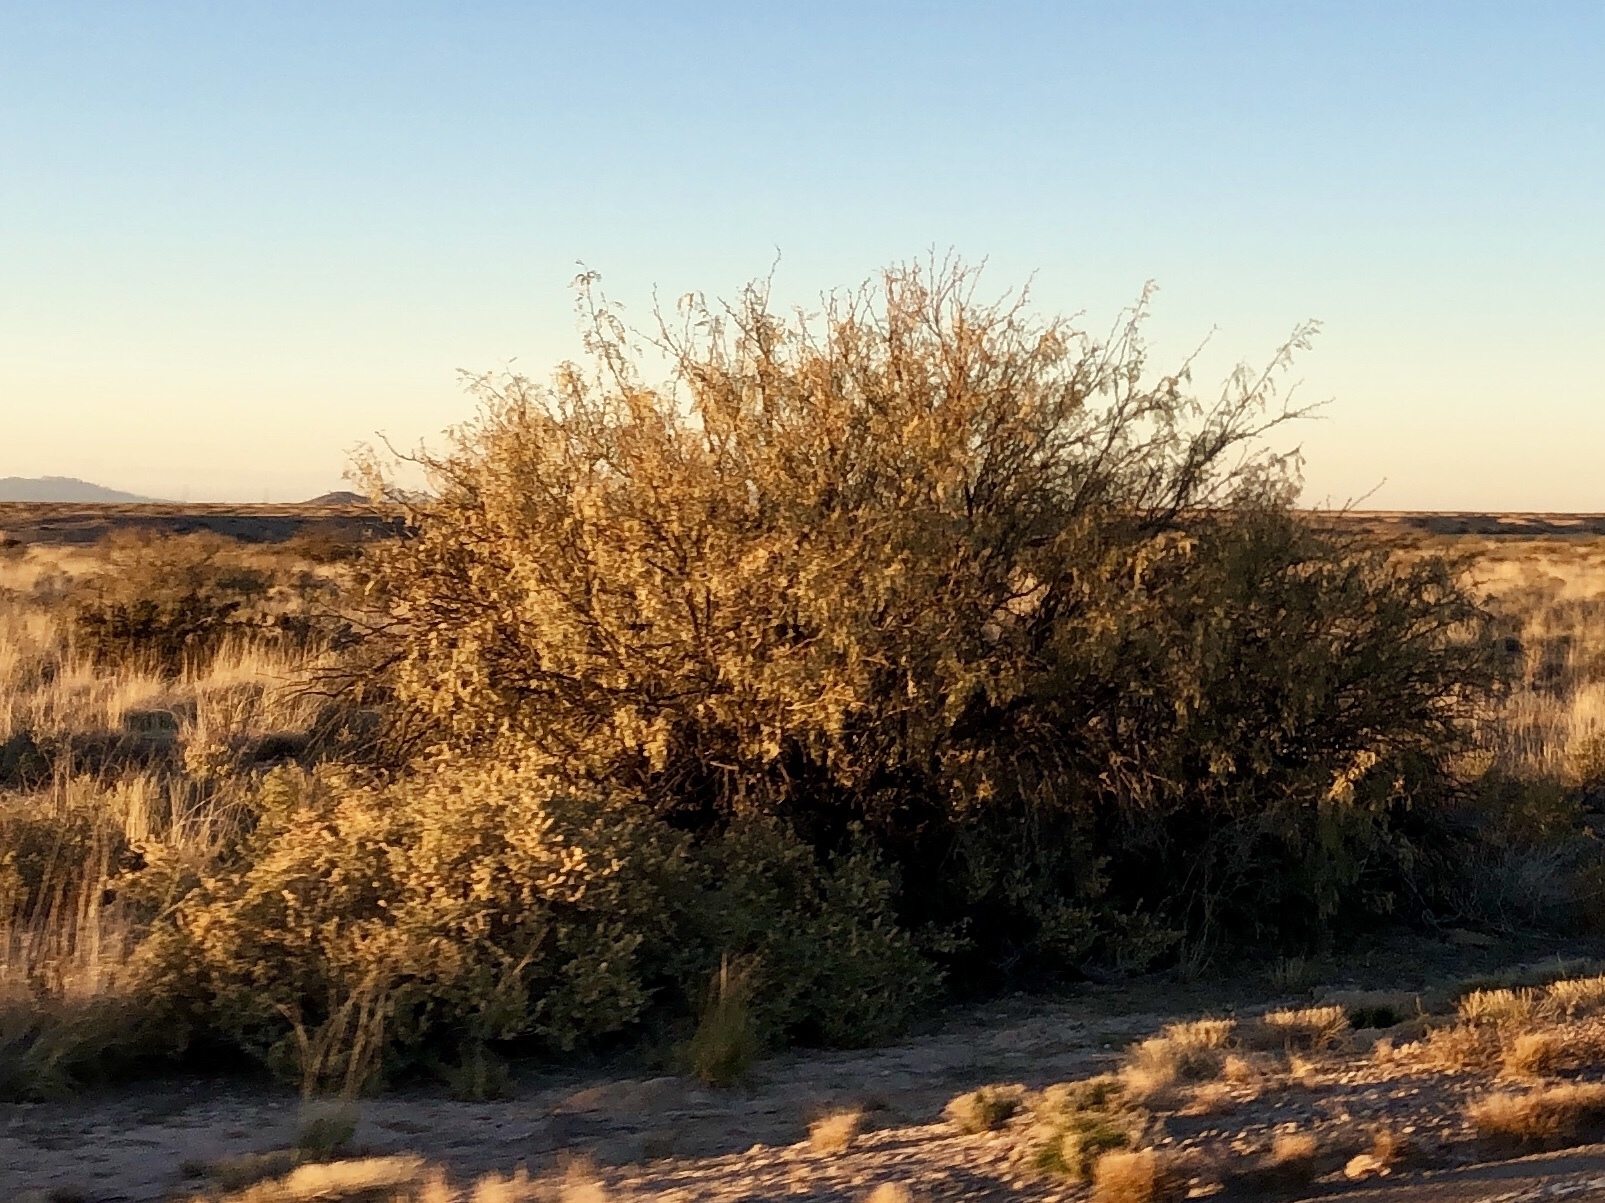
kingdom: Plantae
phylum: Tracheophyta
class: Magnoliopsida
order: Fabales
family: Fabaceae
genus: Prosopis
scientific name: Prosopis glandulosa
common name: Honey mesquite
